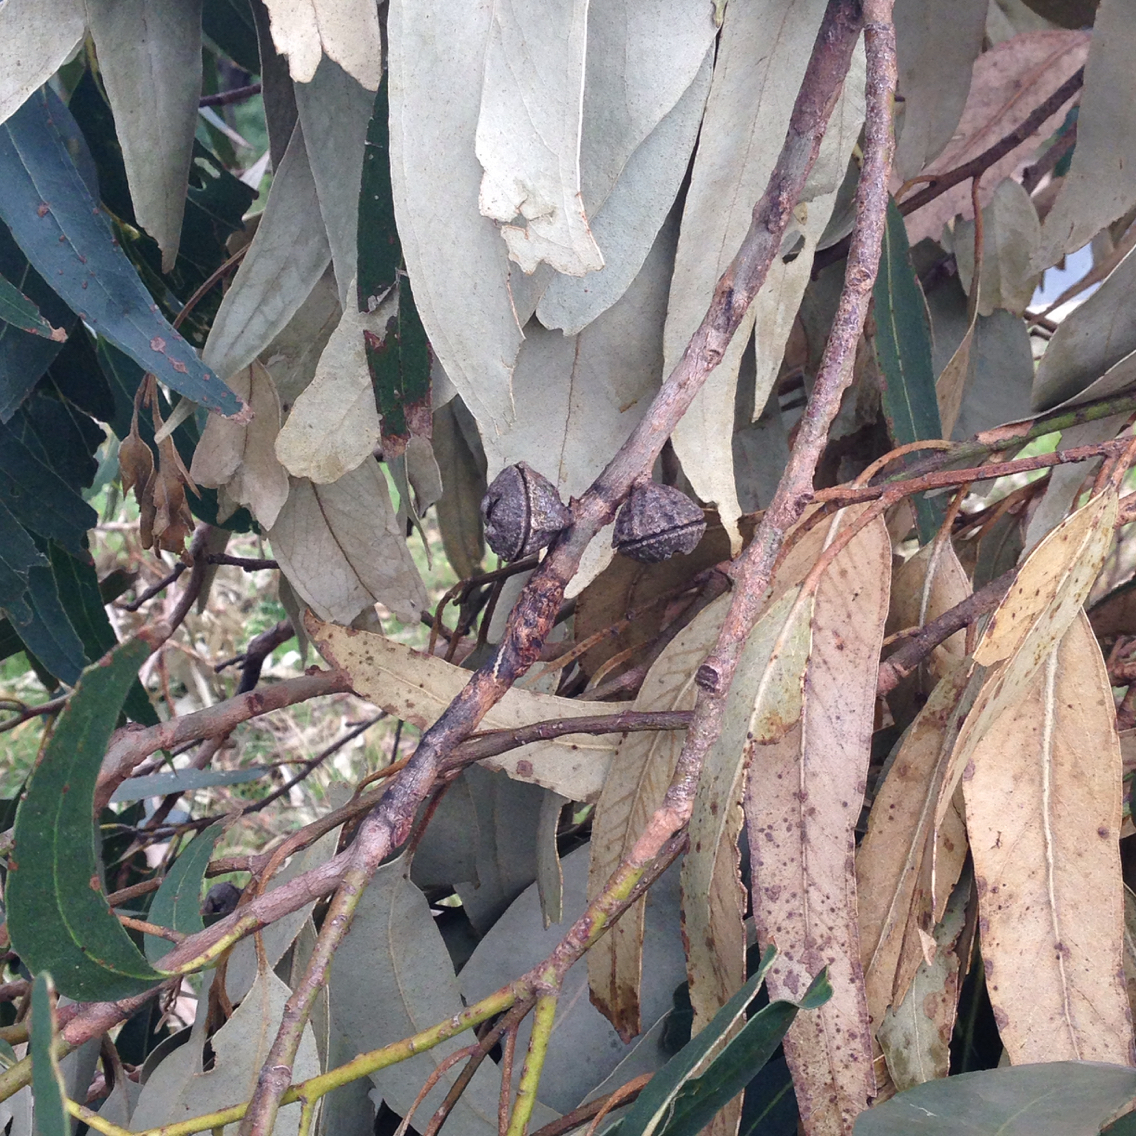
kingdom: Plantae
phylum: Tracheophyta
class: Magnoliopsida
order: Myrtales
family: Myrtaceae
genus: Eucalyptus
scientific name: Eucalyptus globulus
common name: Southern blue-gum
